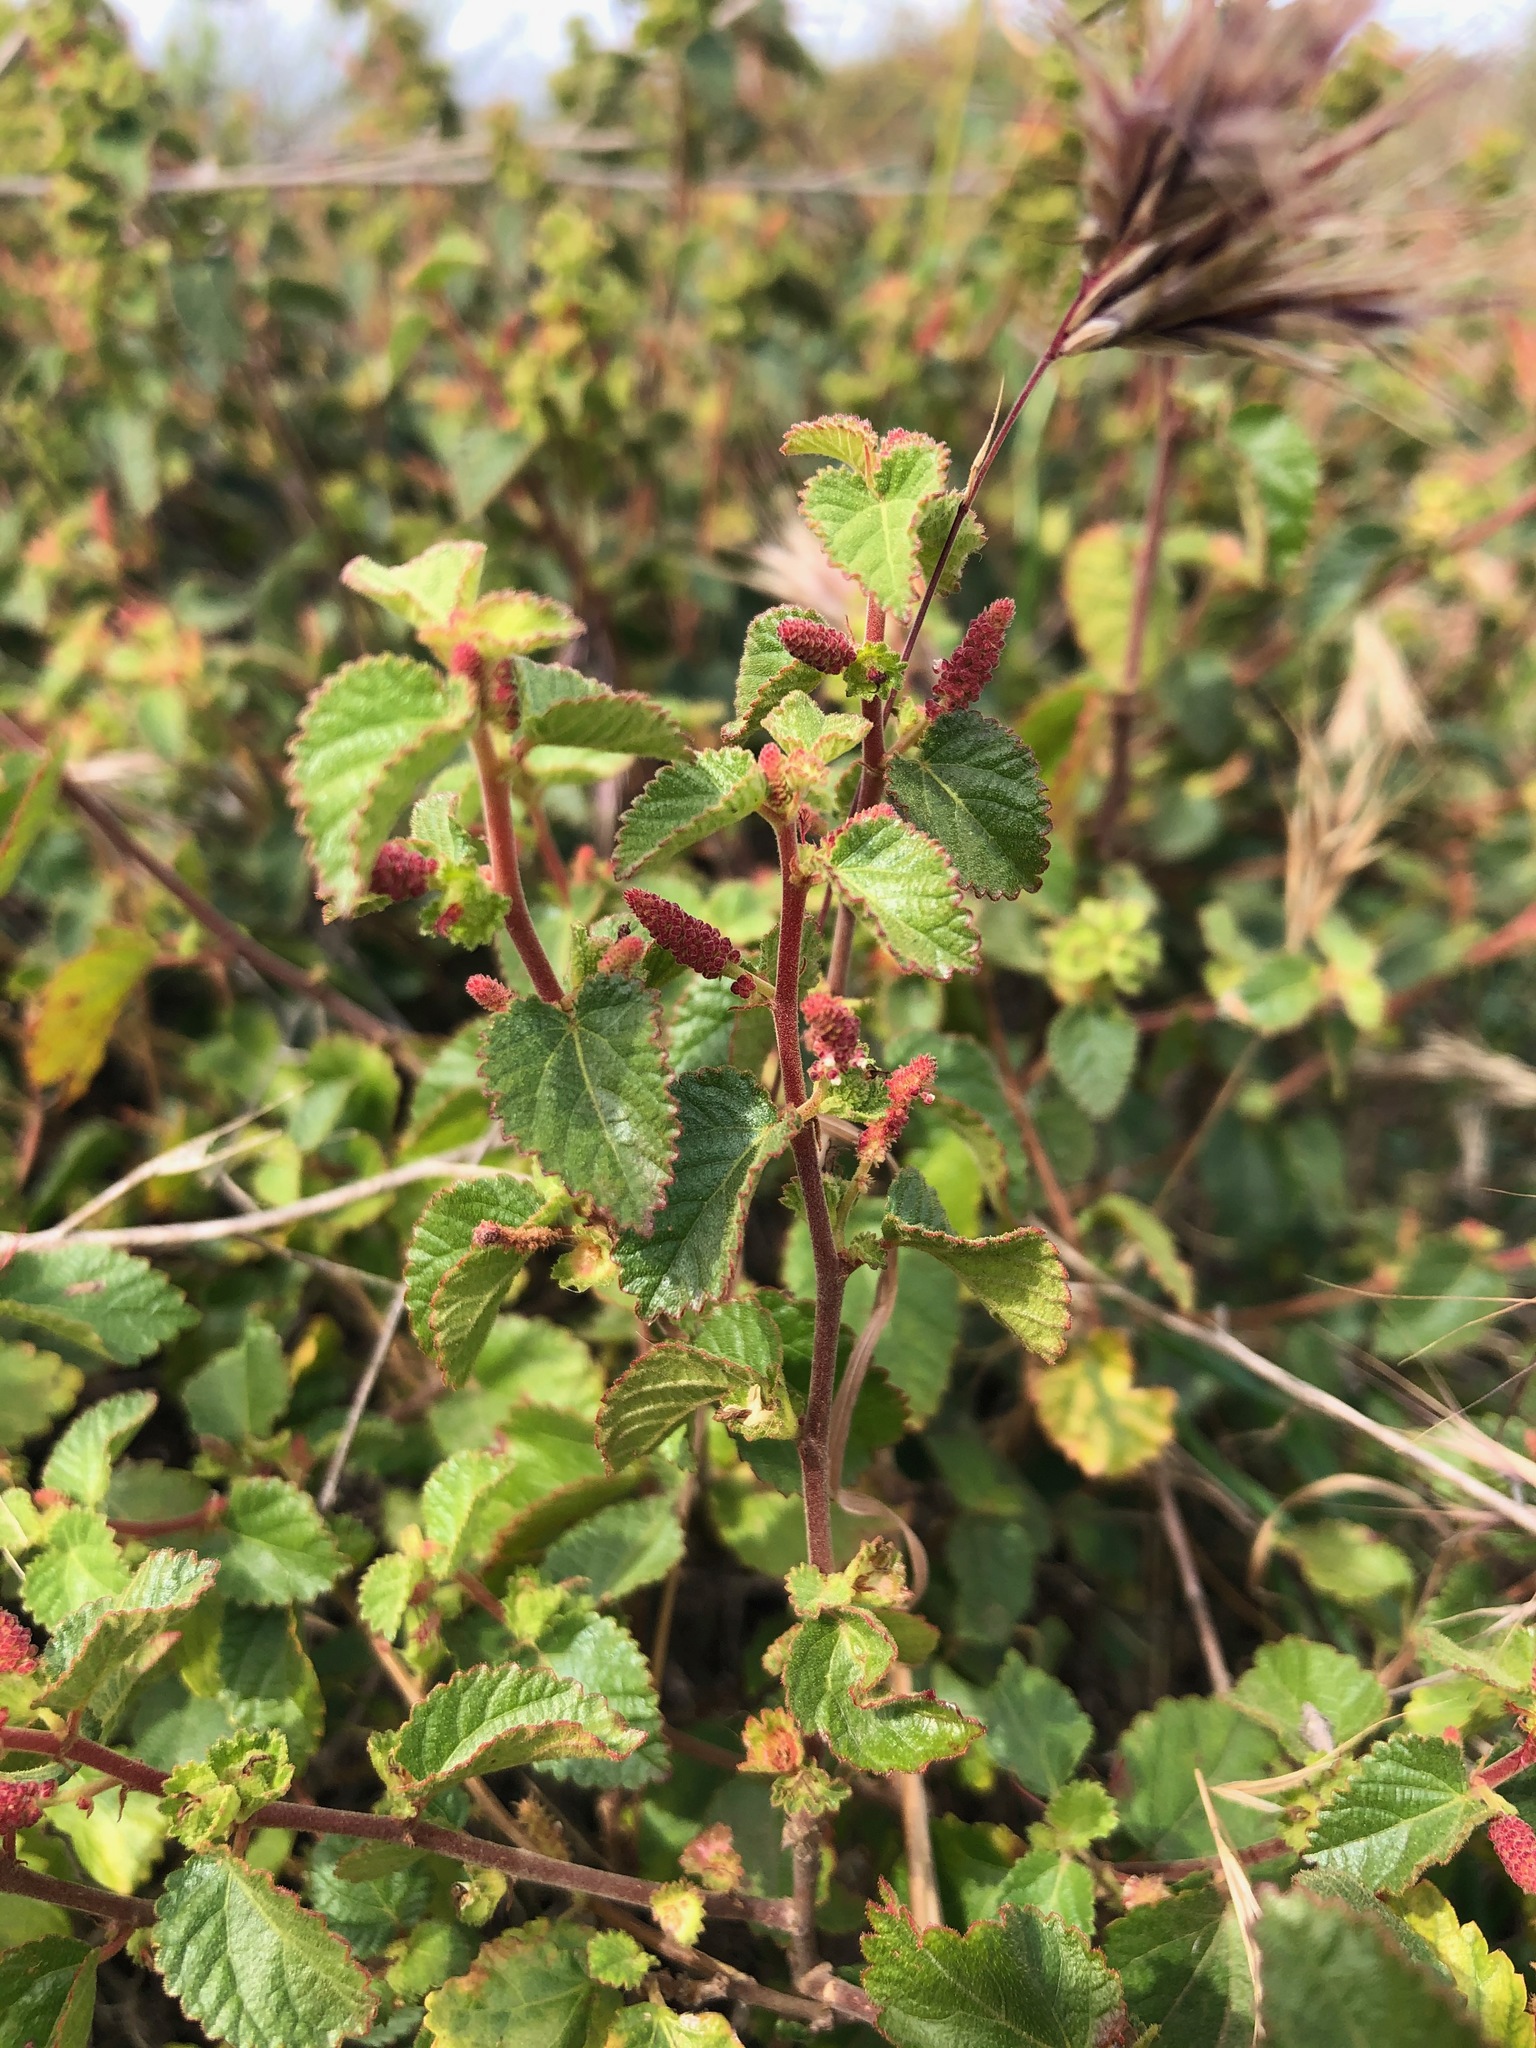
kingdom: Plantae
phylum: Tracheophyta
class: Magnoliopsida
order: Malpighiales
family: Euphorbiaceae
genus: Acalypha
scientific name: Acalypha californica
